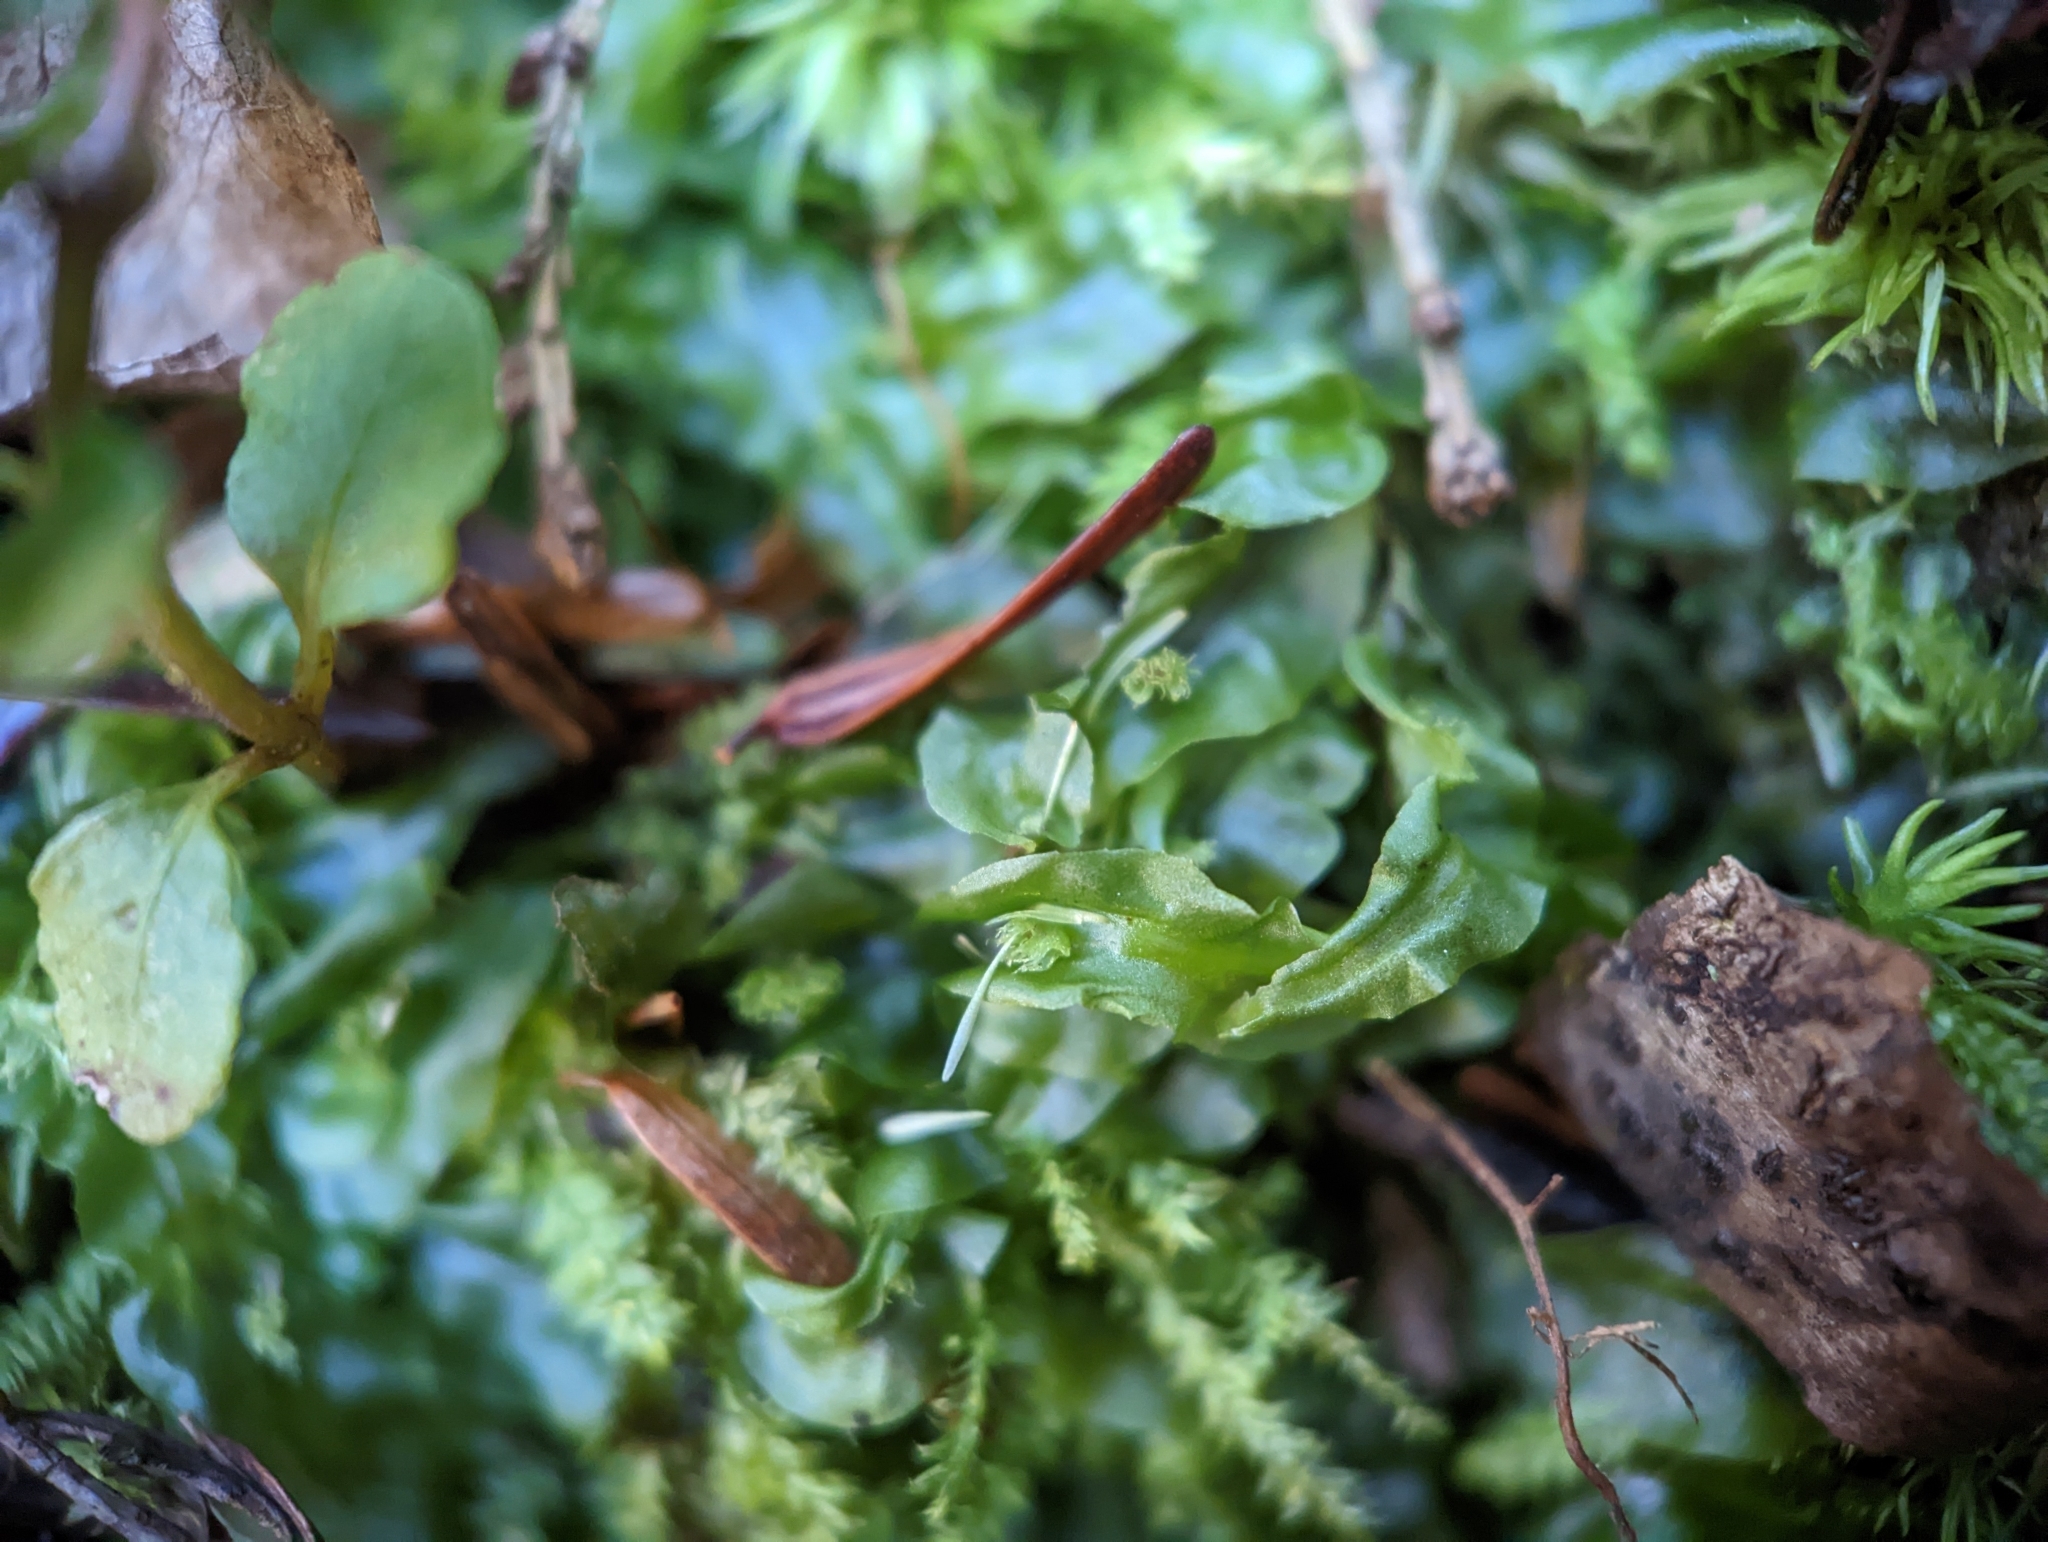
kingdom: Plantae
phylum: Marchantiophyta
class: Jungermanniopsida
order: Pallaviciniales
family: Pallaviciniaceae
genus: Pallavicinia
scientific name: Pallavicinia lyellii
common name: Veilwort
